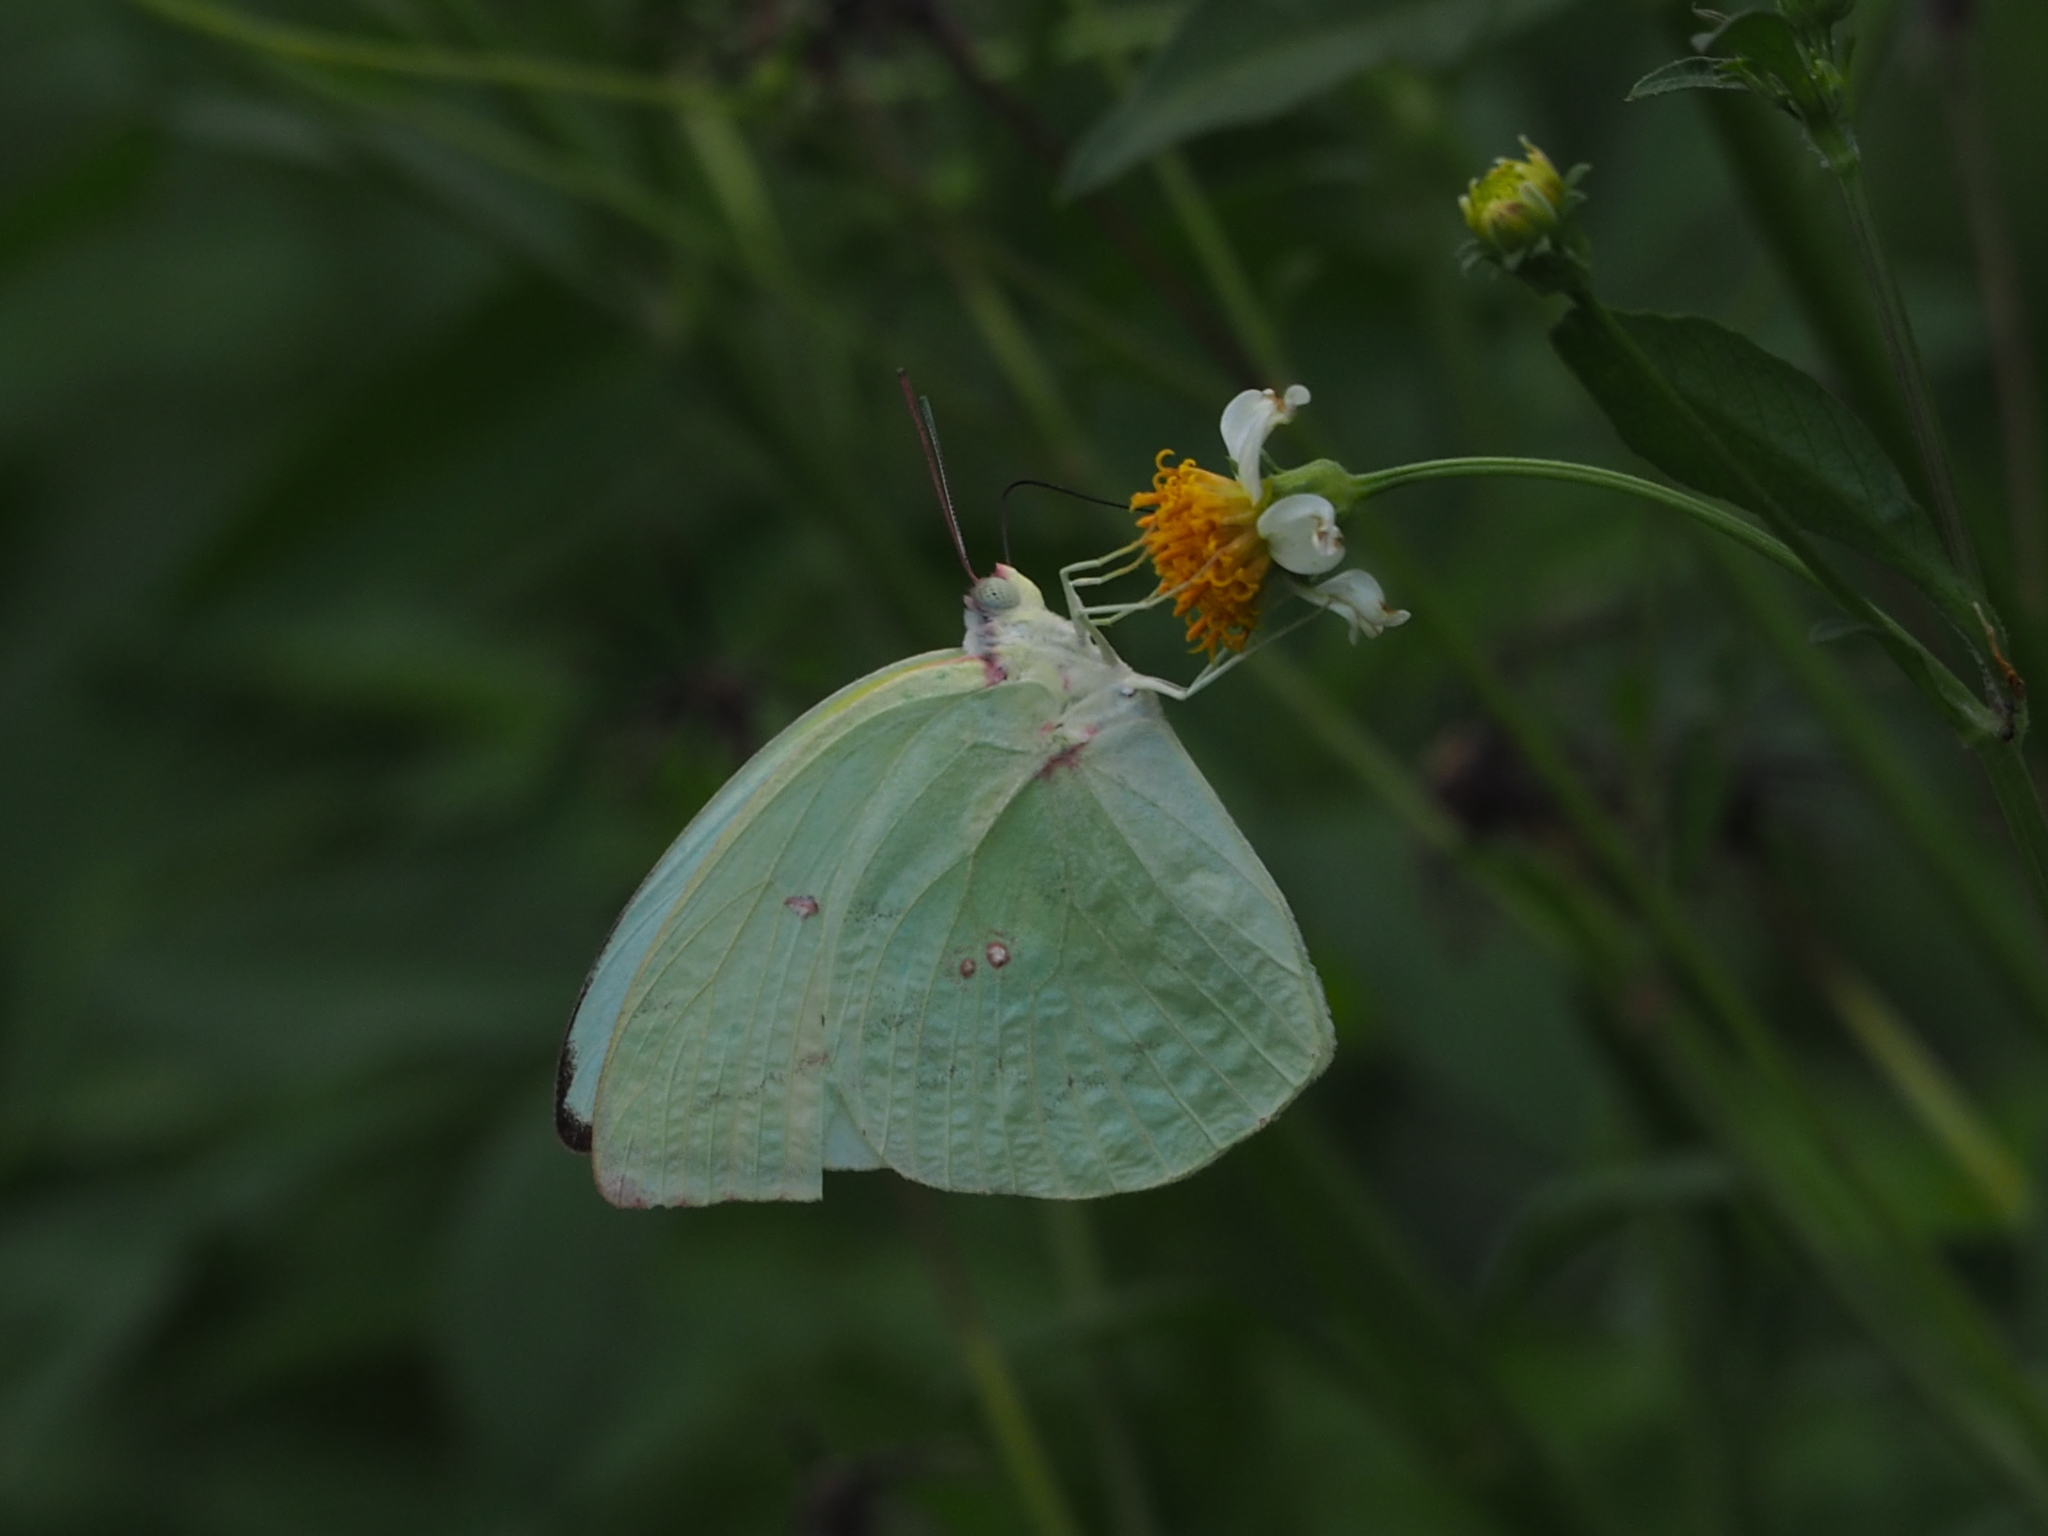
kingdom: Animalia
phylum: Arthropoda
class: Insecta
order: Lepidoptera
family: Pieridae
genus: Catopsilia
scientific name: Catopsilia pomona
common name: Common emigrant
